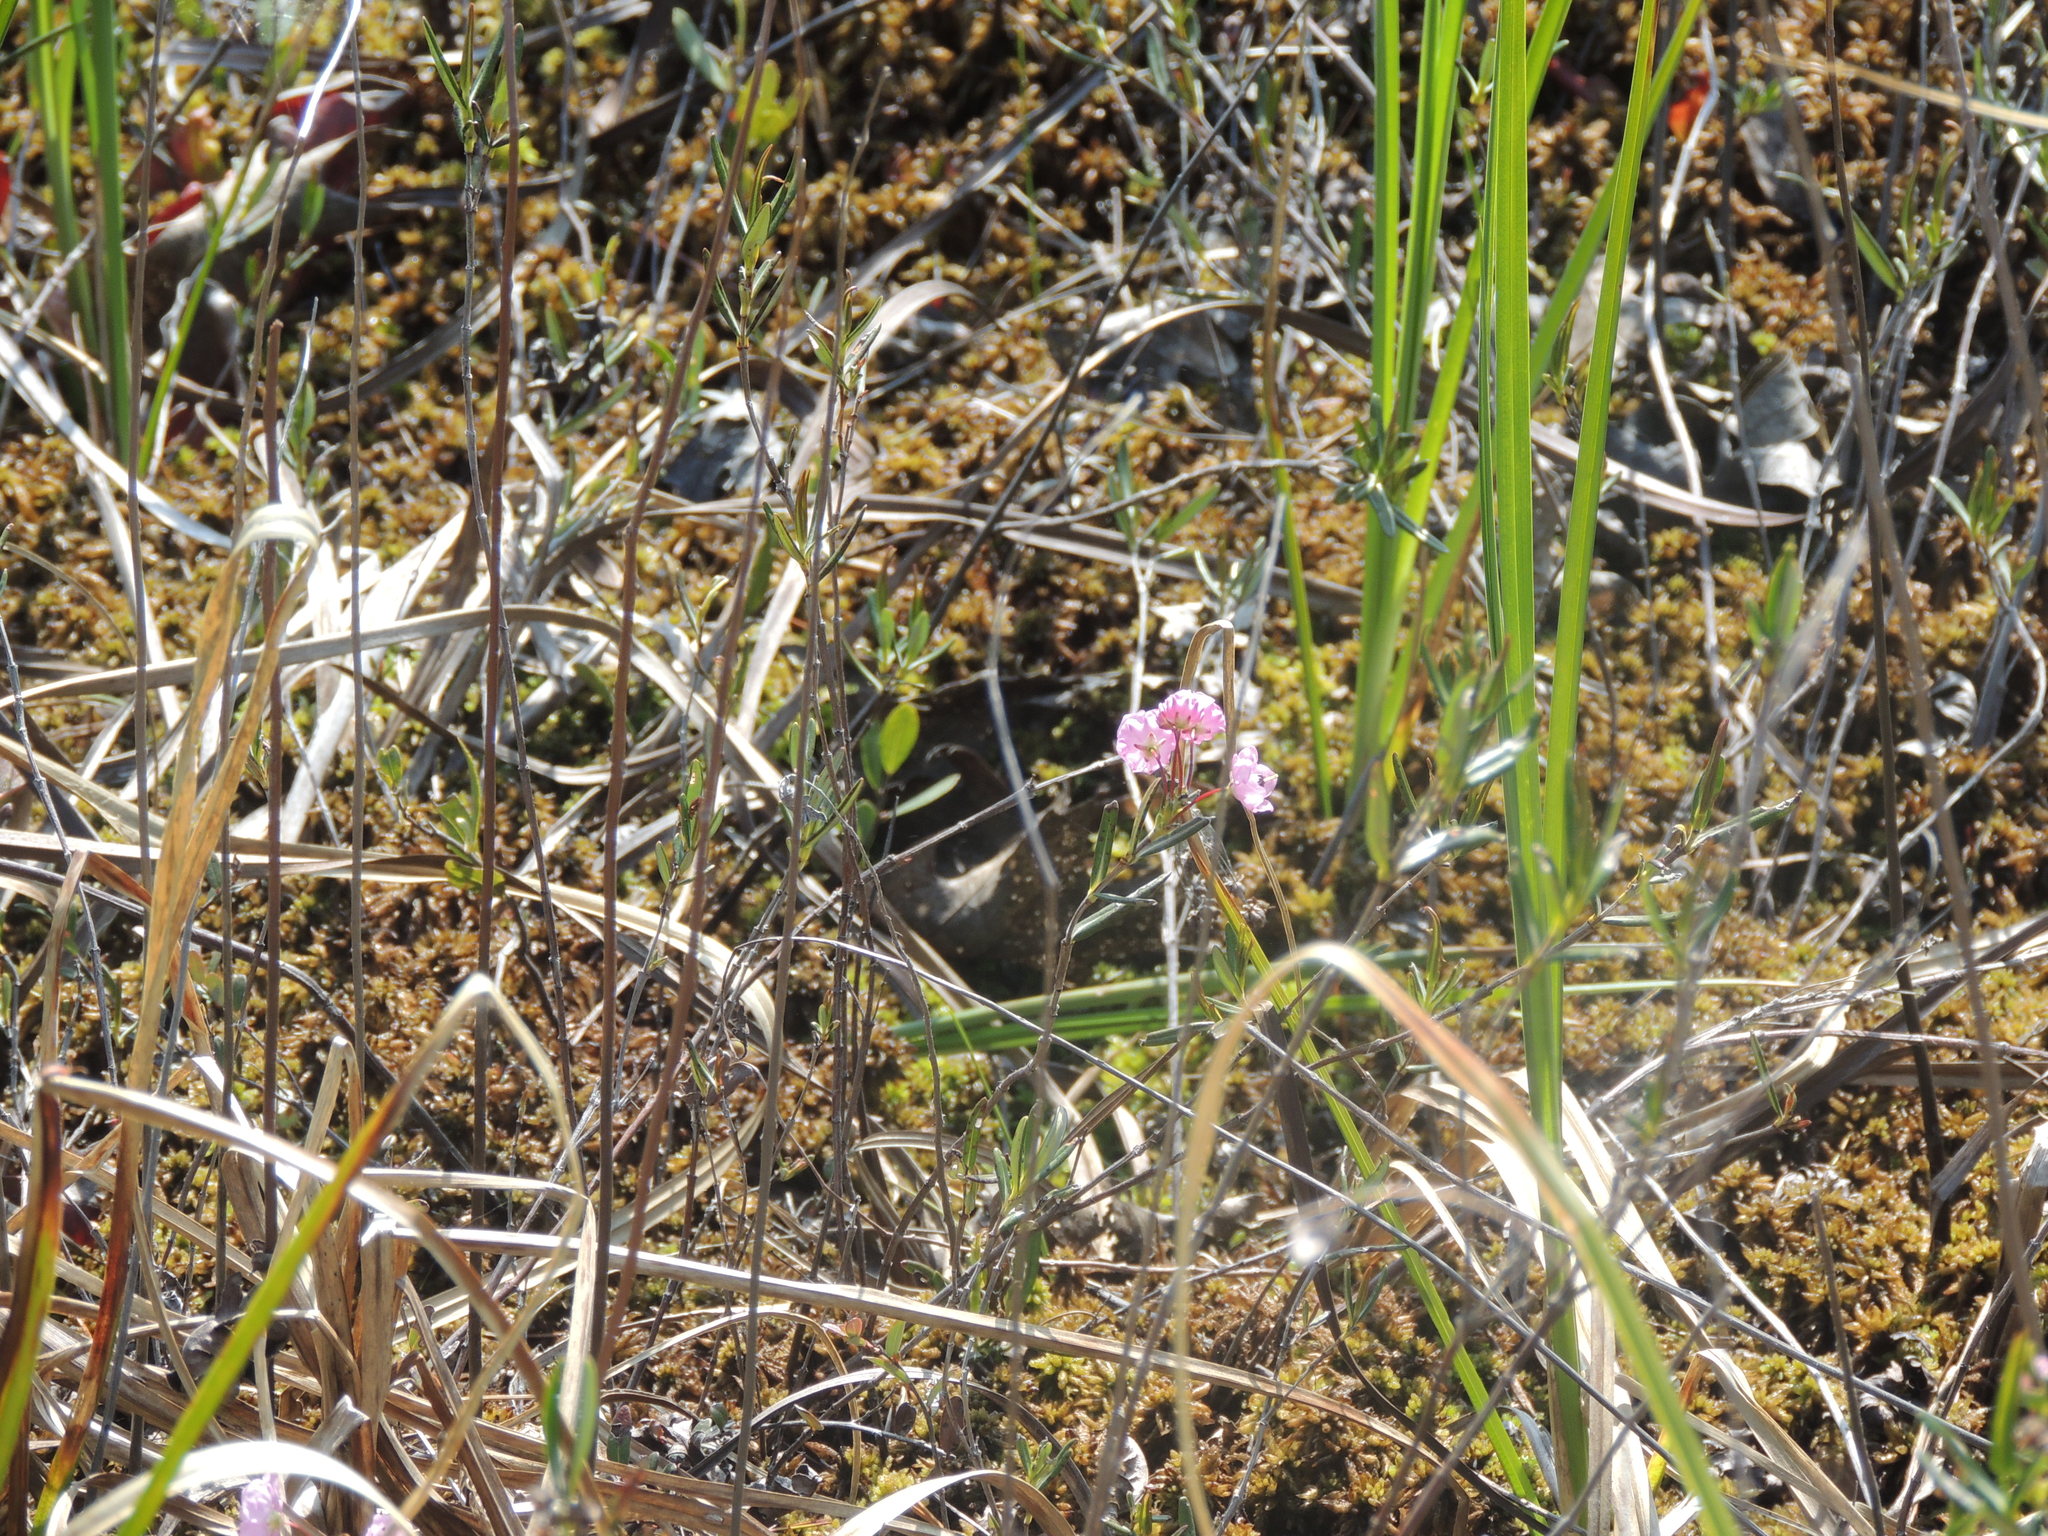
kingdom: Plantae
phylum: Tracheophyta
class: Magnoliopsida
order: Ericales
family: Ericaceae
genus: Kalmia
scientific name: Kalmia polifolia
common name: Bog-laurel
